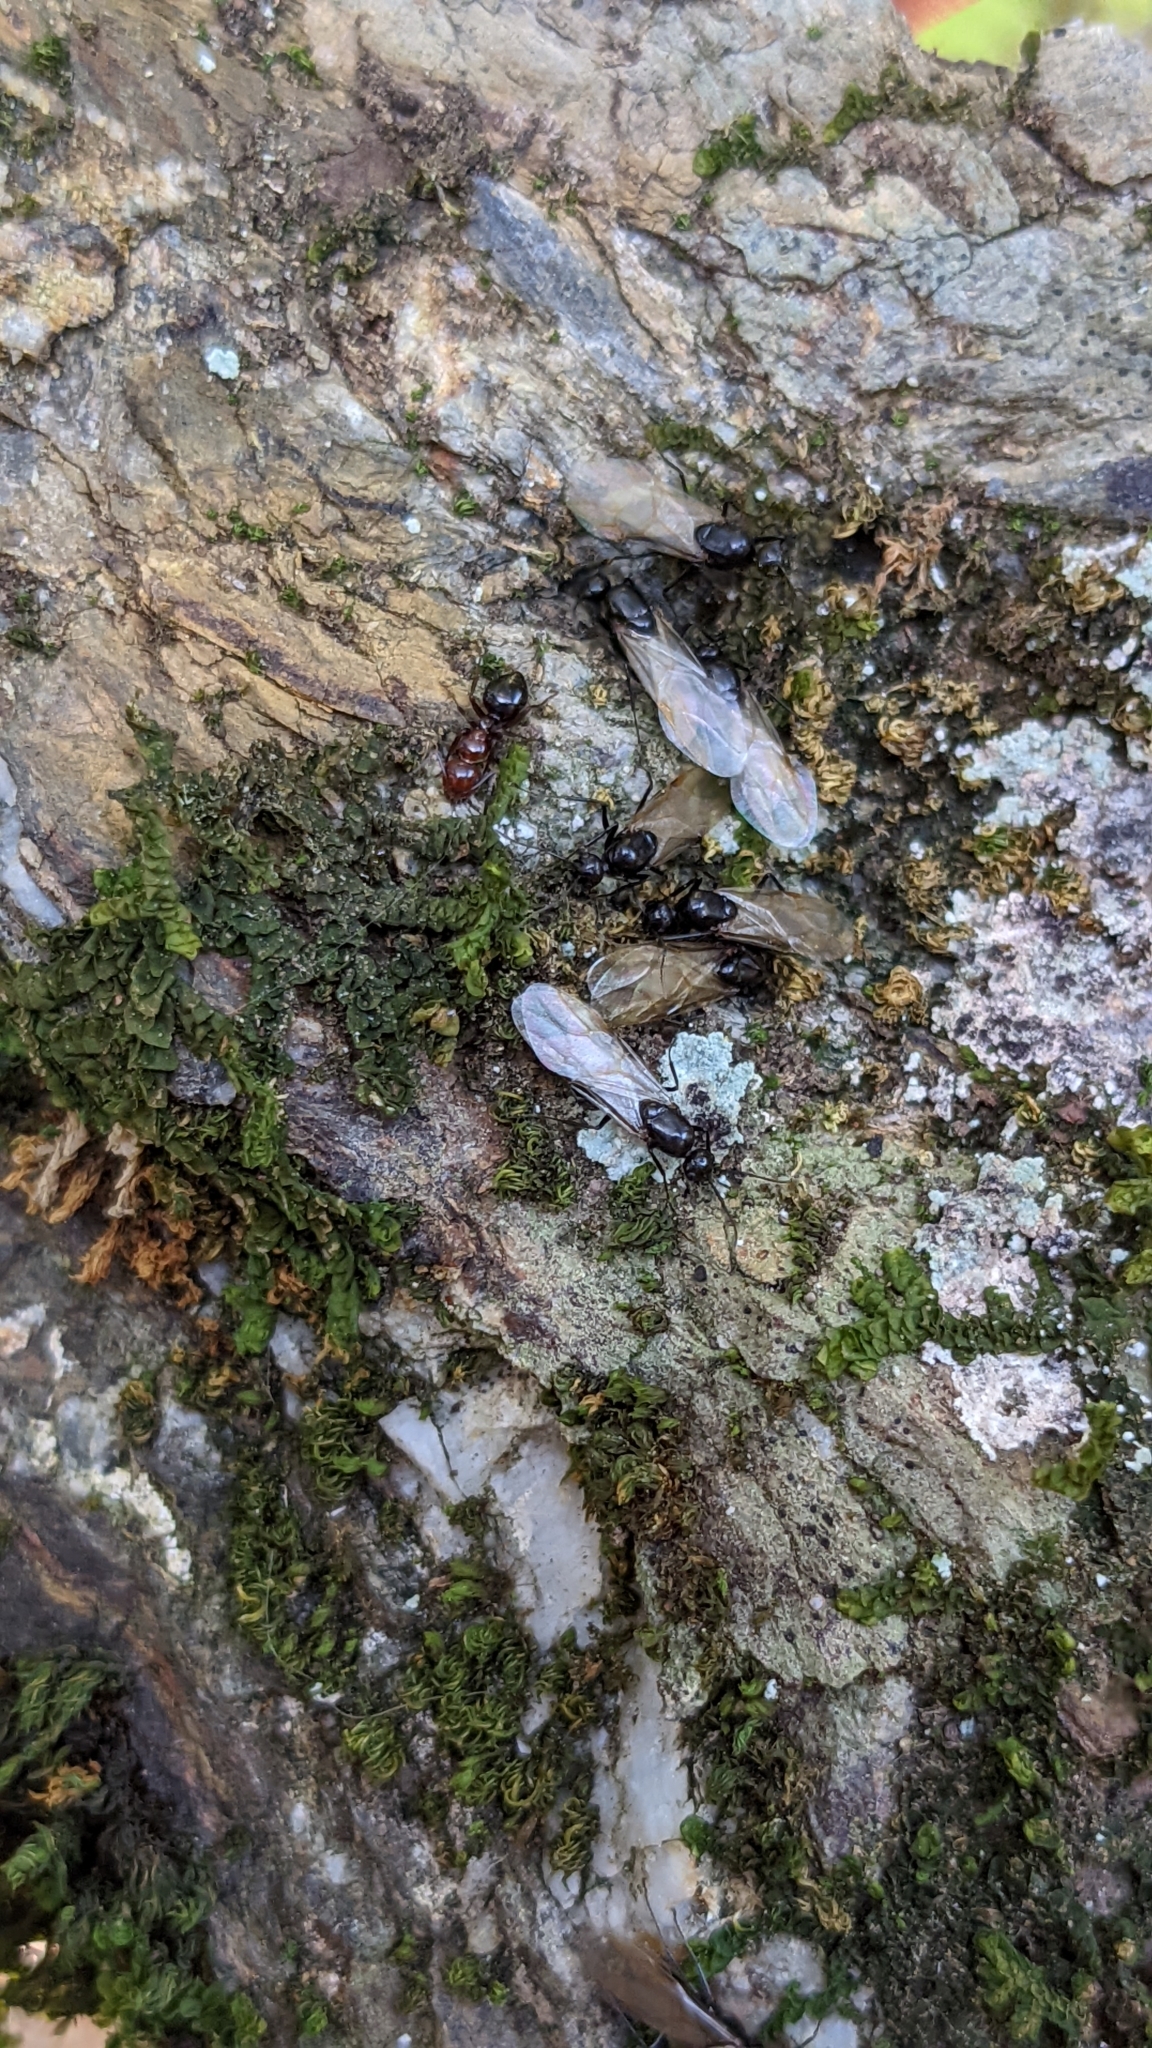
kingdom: Animalia
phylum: Arthropoda
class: Insecta
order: Hymenoptera
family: Formicidae
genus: Camponotus
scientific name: Camponotus lateralis
